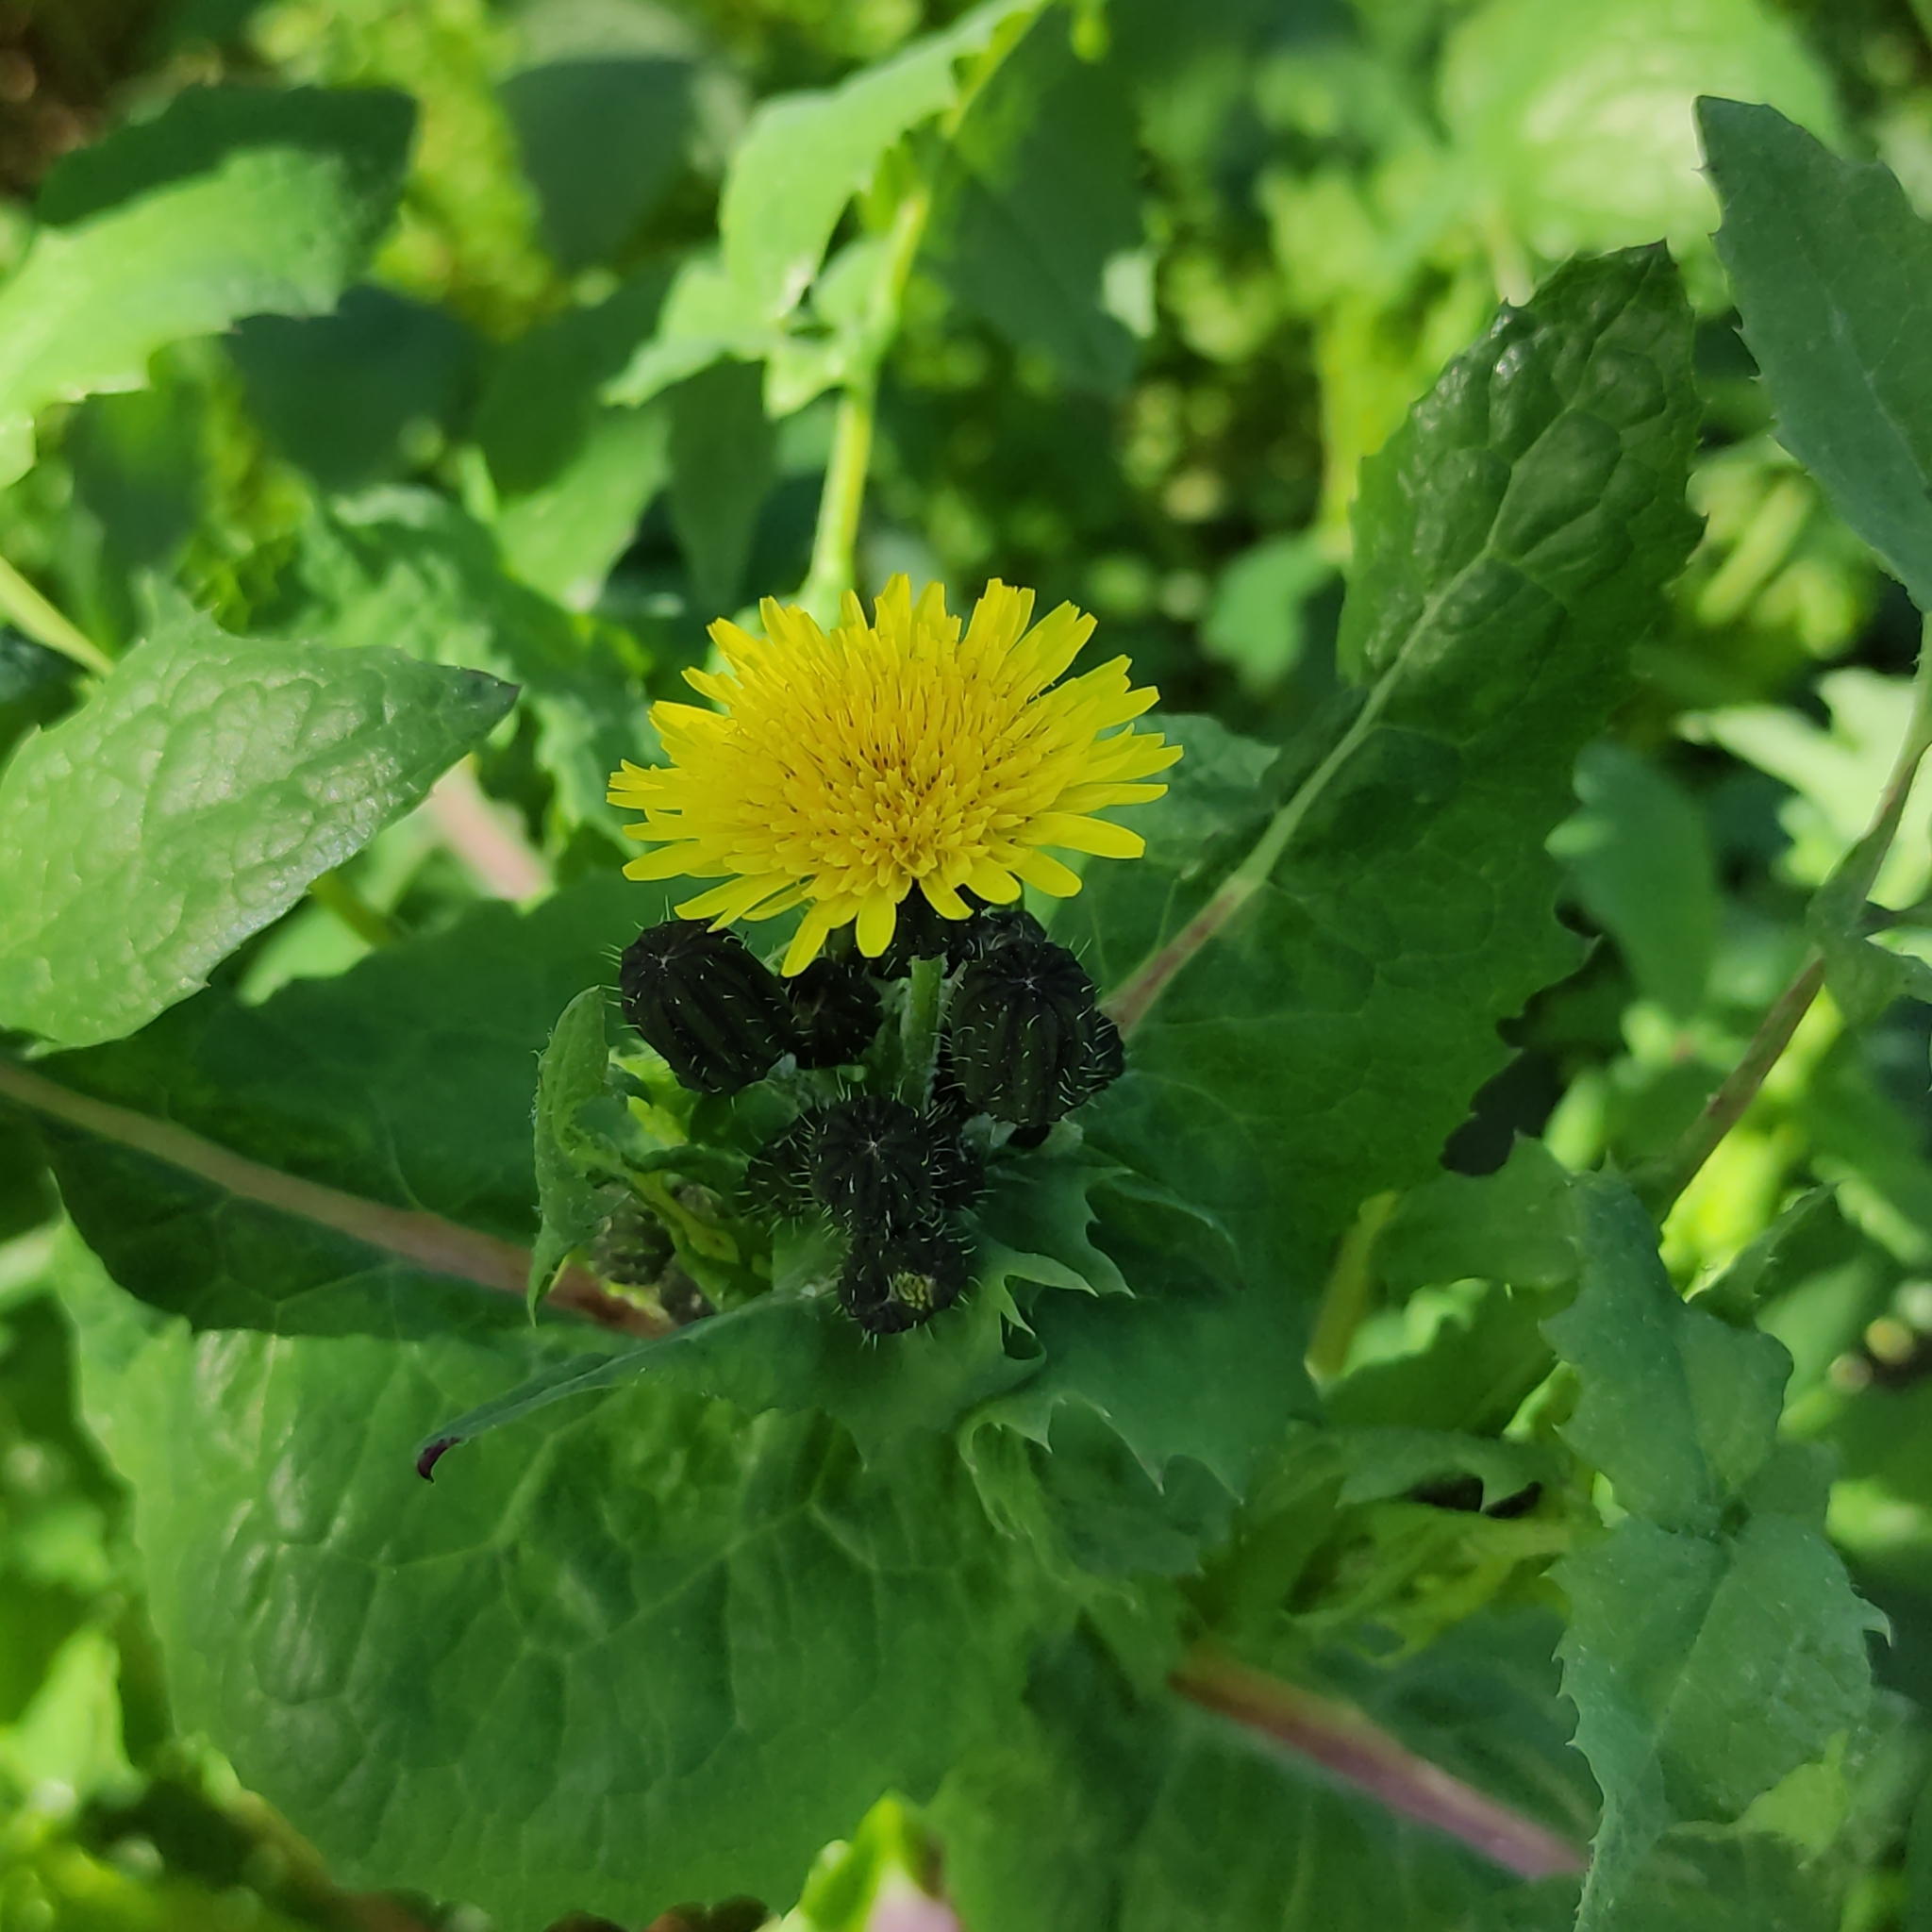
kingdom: Plantae
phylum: Tracheophyta
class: Magnoliopsida
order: Asterales
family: Asteraceae
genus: Sonchus
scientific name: Sonchus oleraceus
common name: Common sowthistle
